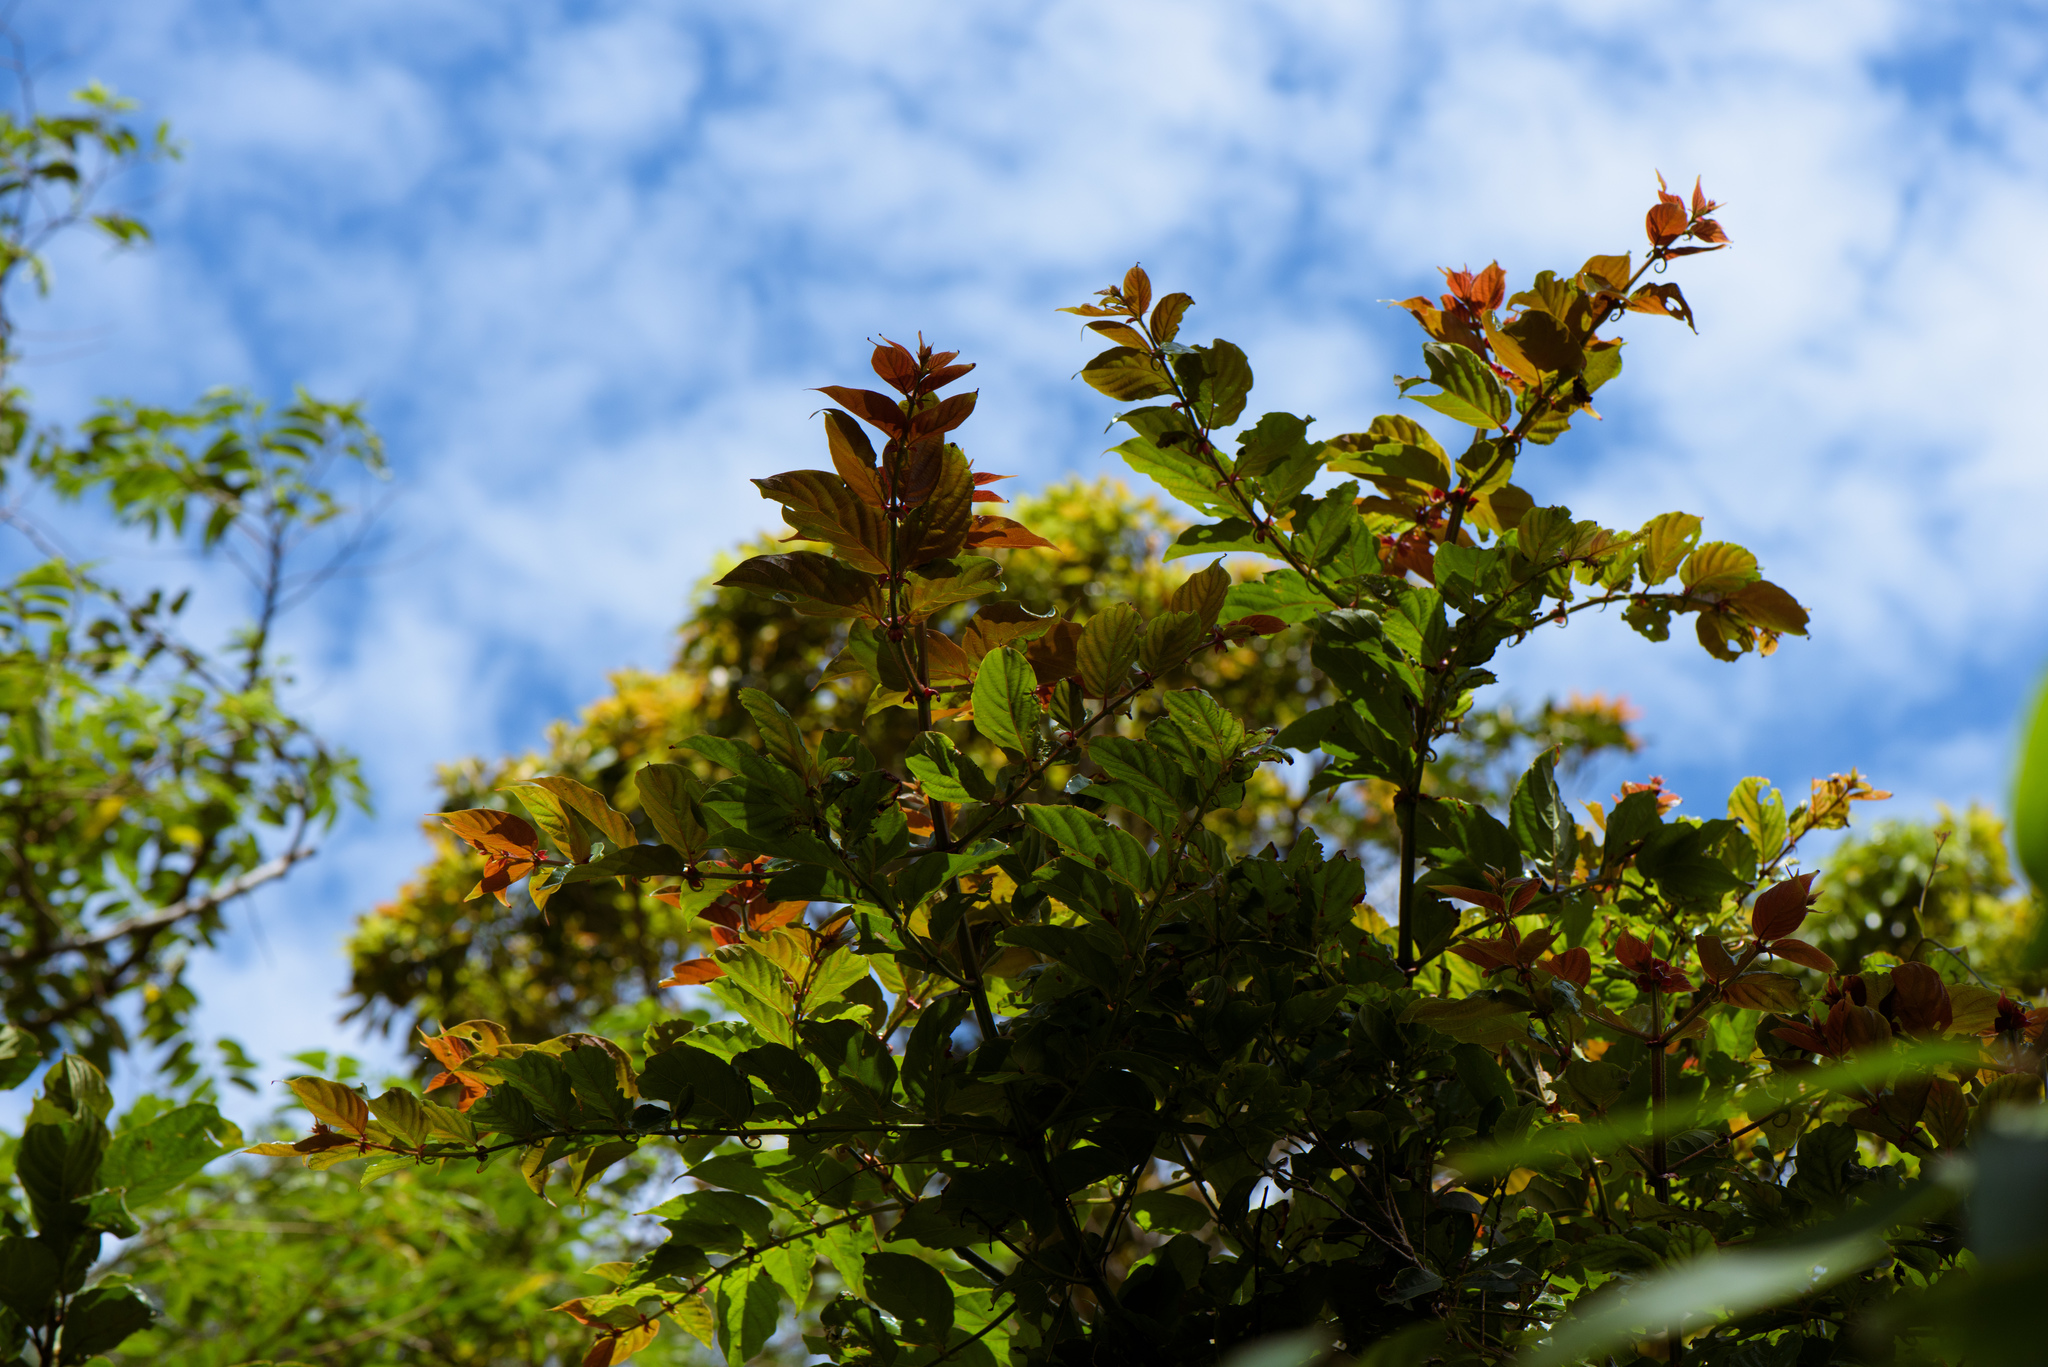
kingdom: Plantae
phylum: Tracheophyta
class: Magnoliopsida
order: Gentianales
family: Rubiaceae
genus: Uncaria
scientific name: Uncaria lanosa
